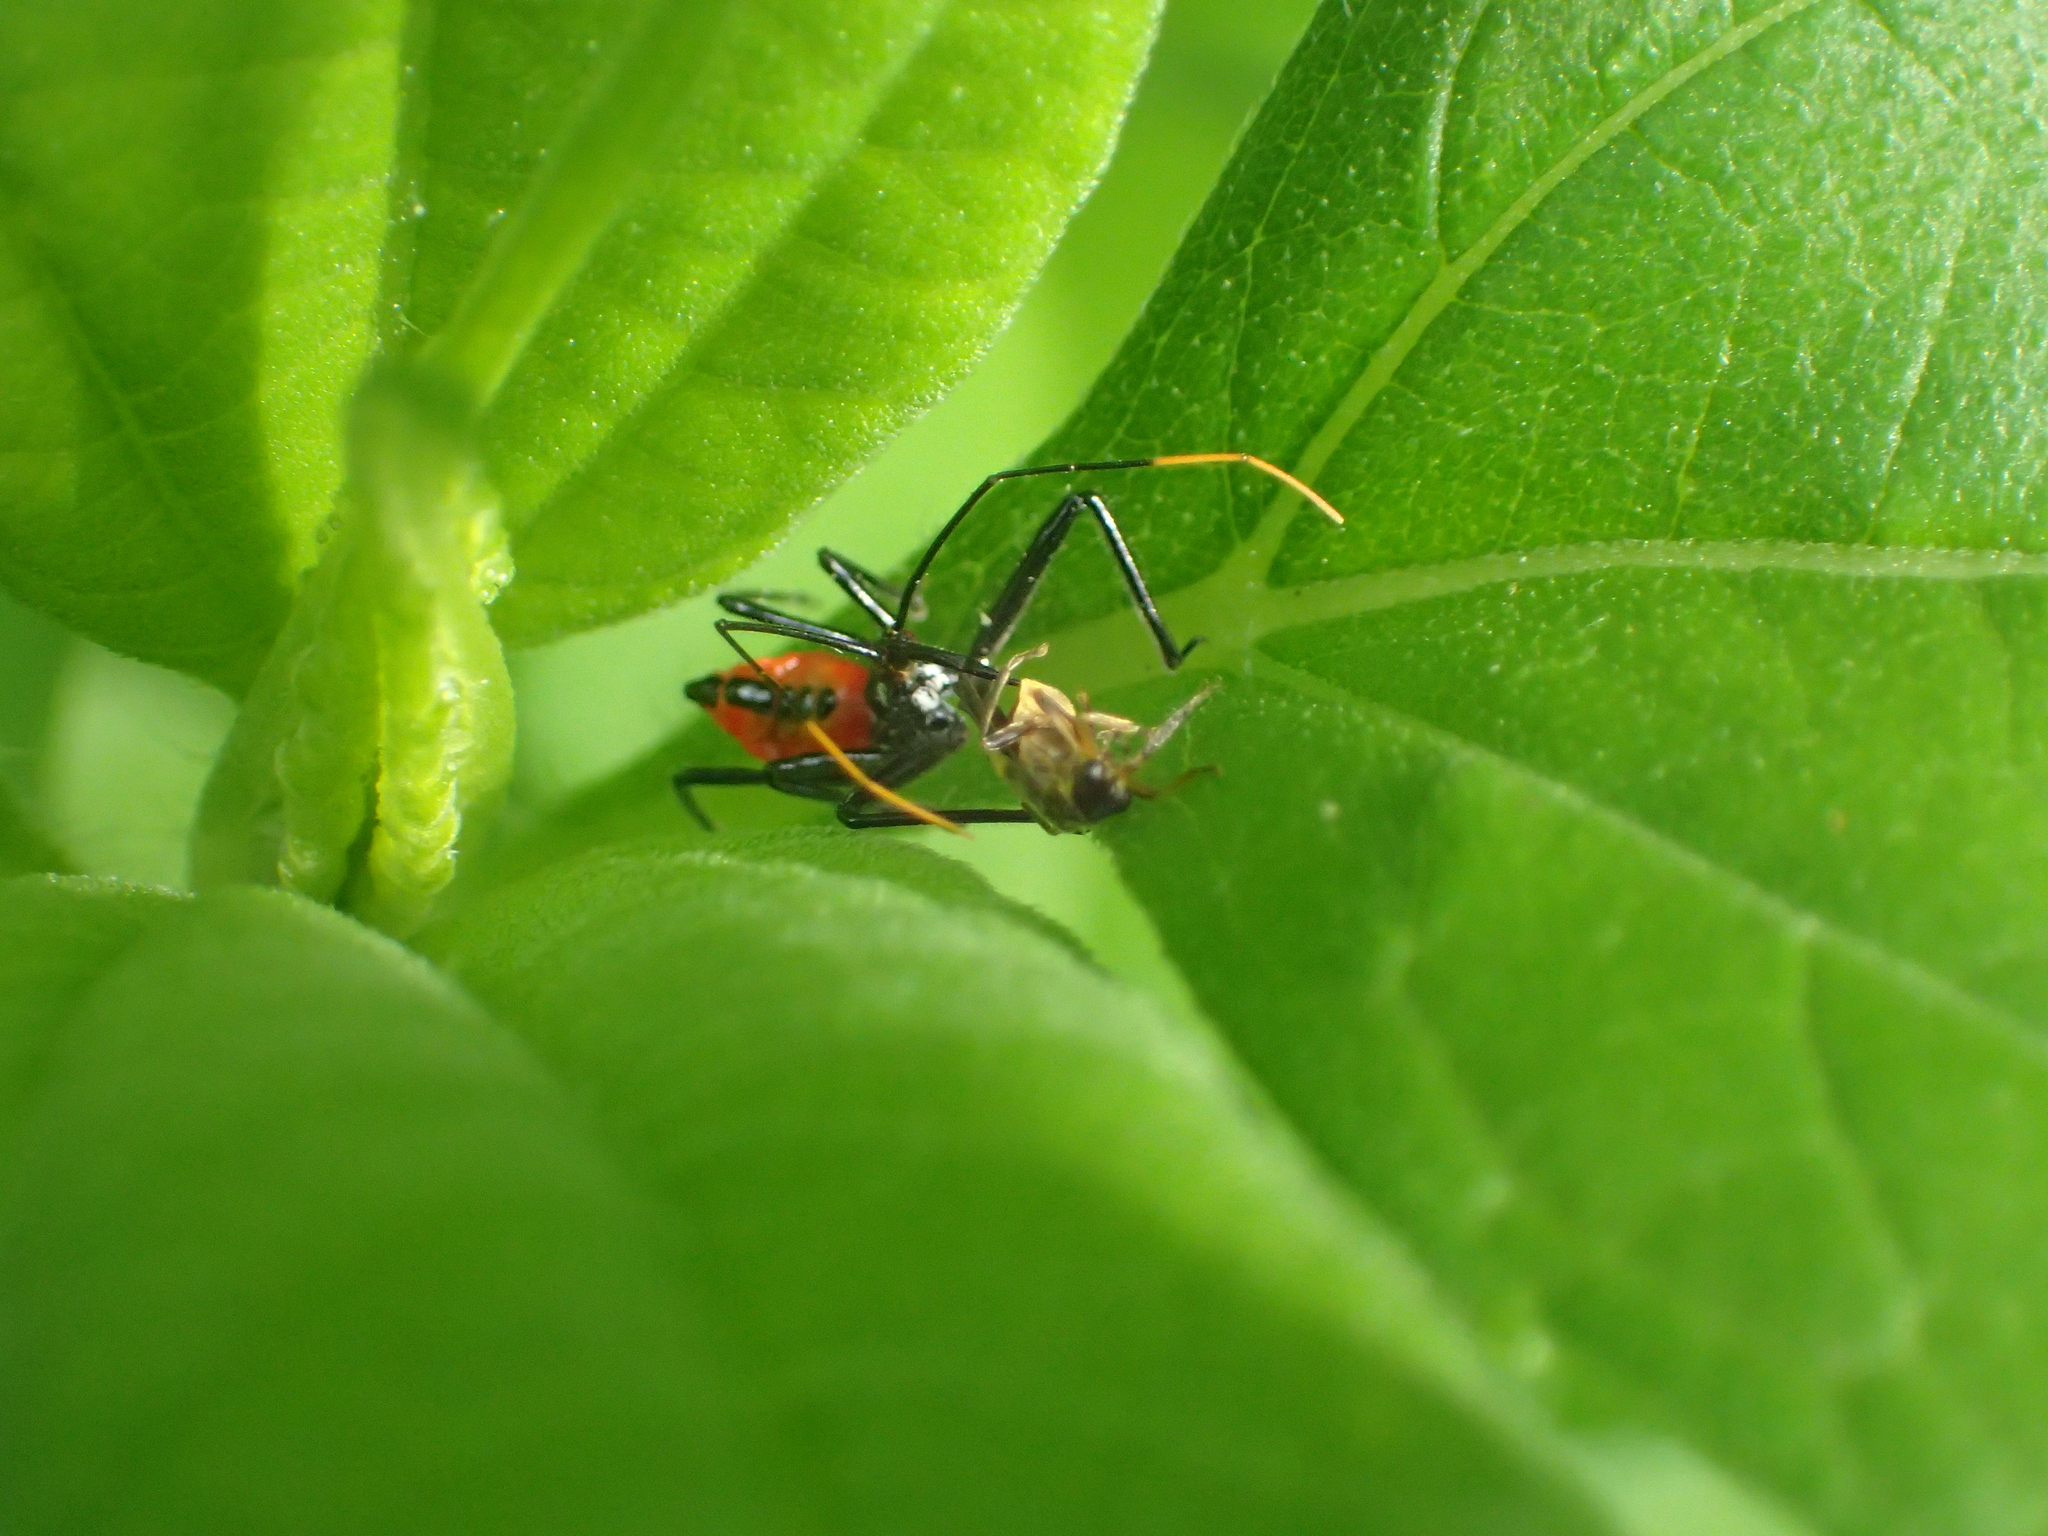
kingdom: Animalia
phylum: Arthropoda
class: Insecta
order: Coleoptera
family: Cantharidae
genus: Trypherus
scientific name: Trypherus
